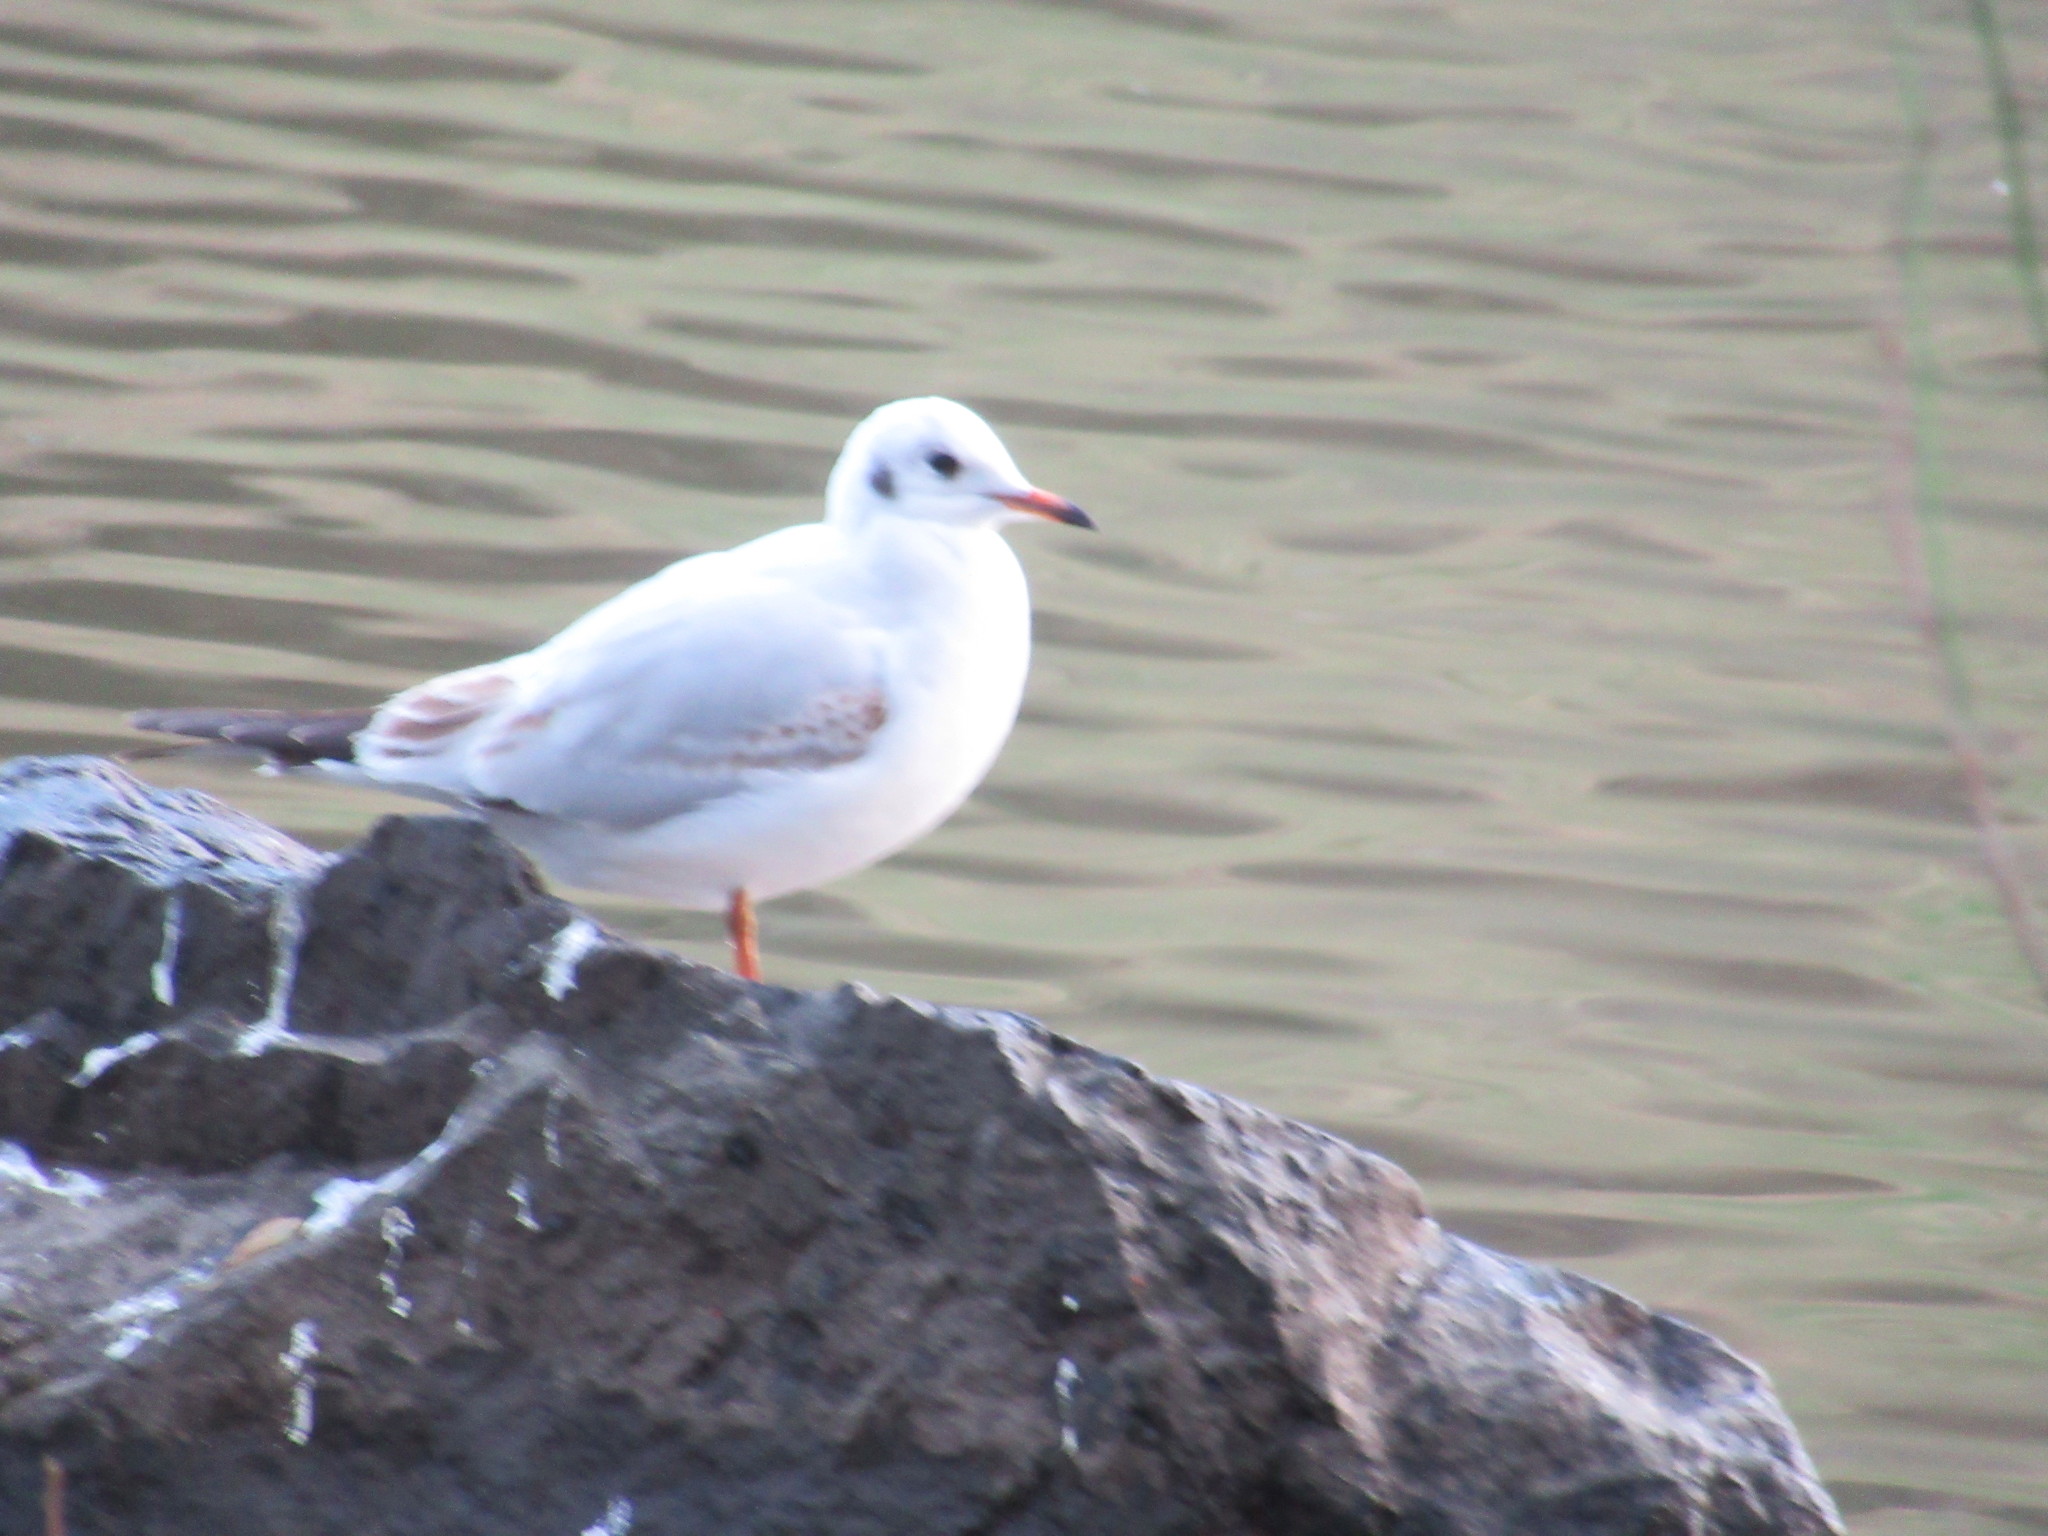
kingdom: Animalia
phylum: Chordata
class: Aves
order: Charadriiformes
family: Laridae
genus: Chroicocephalus
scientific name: Chroicocephalus ridibundus
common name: Black-headed gull
